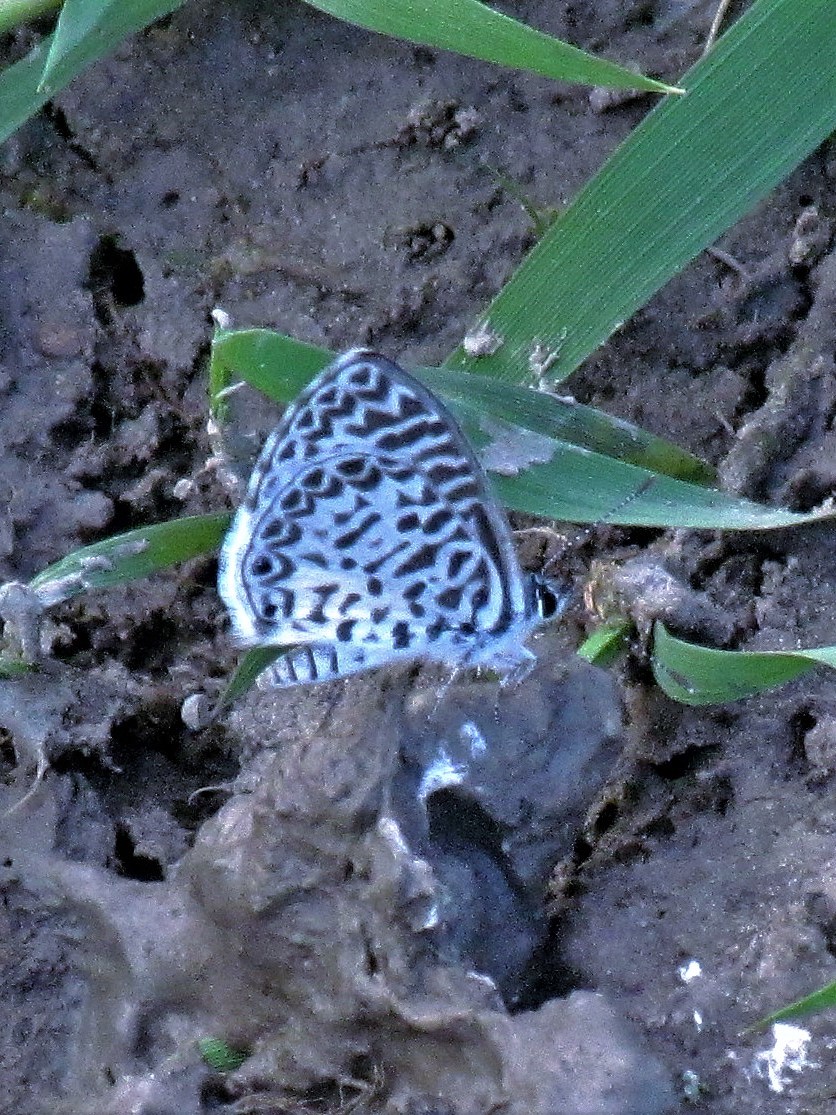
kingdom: Animalia
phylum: Arthropoda
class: Insecta
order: Lepidoptera
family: Lycaenidae
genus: Leptotes
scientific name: Leptotes cassius
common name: Cassius blue
